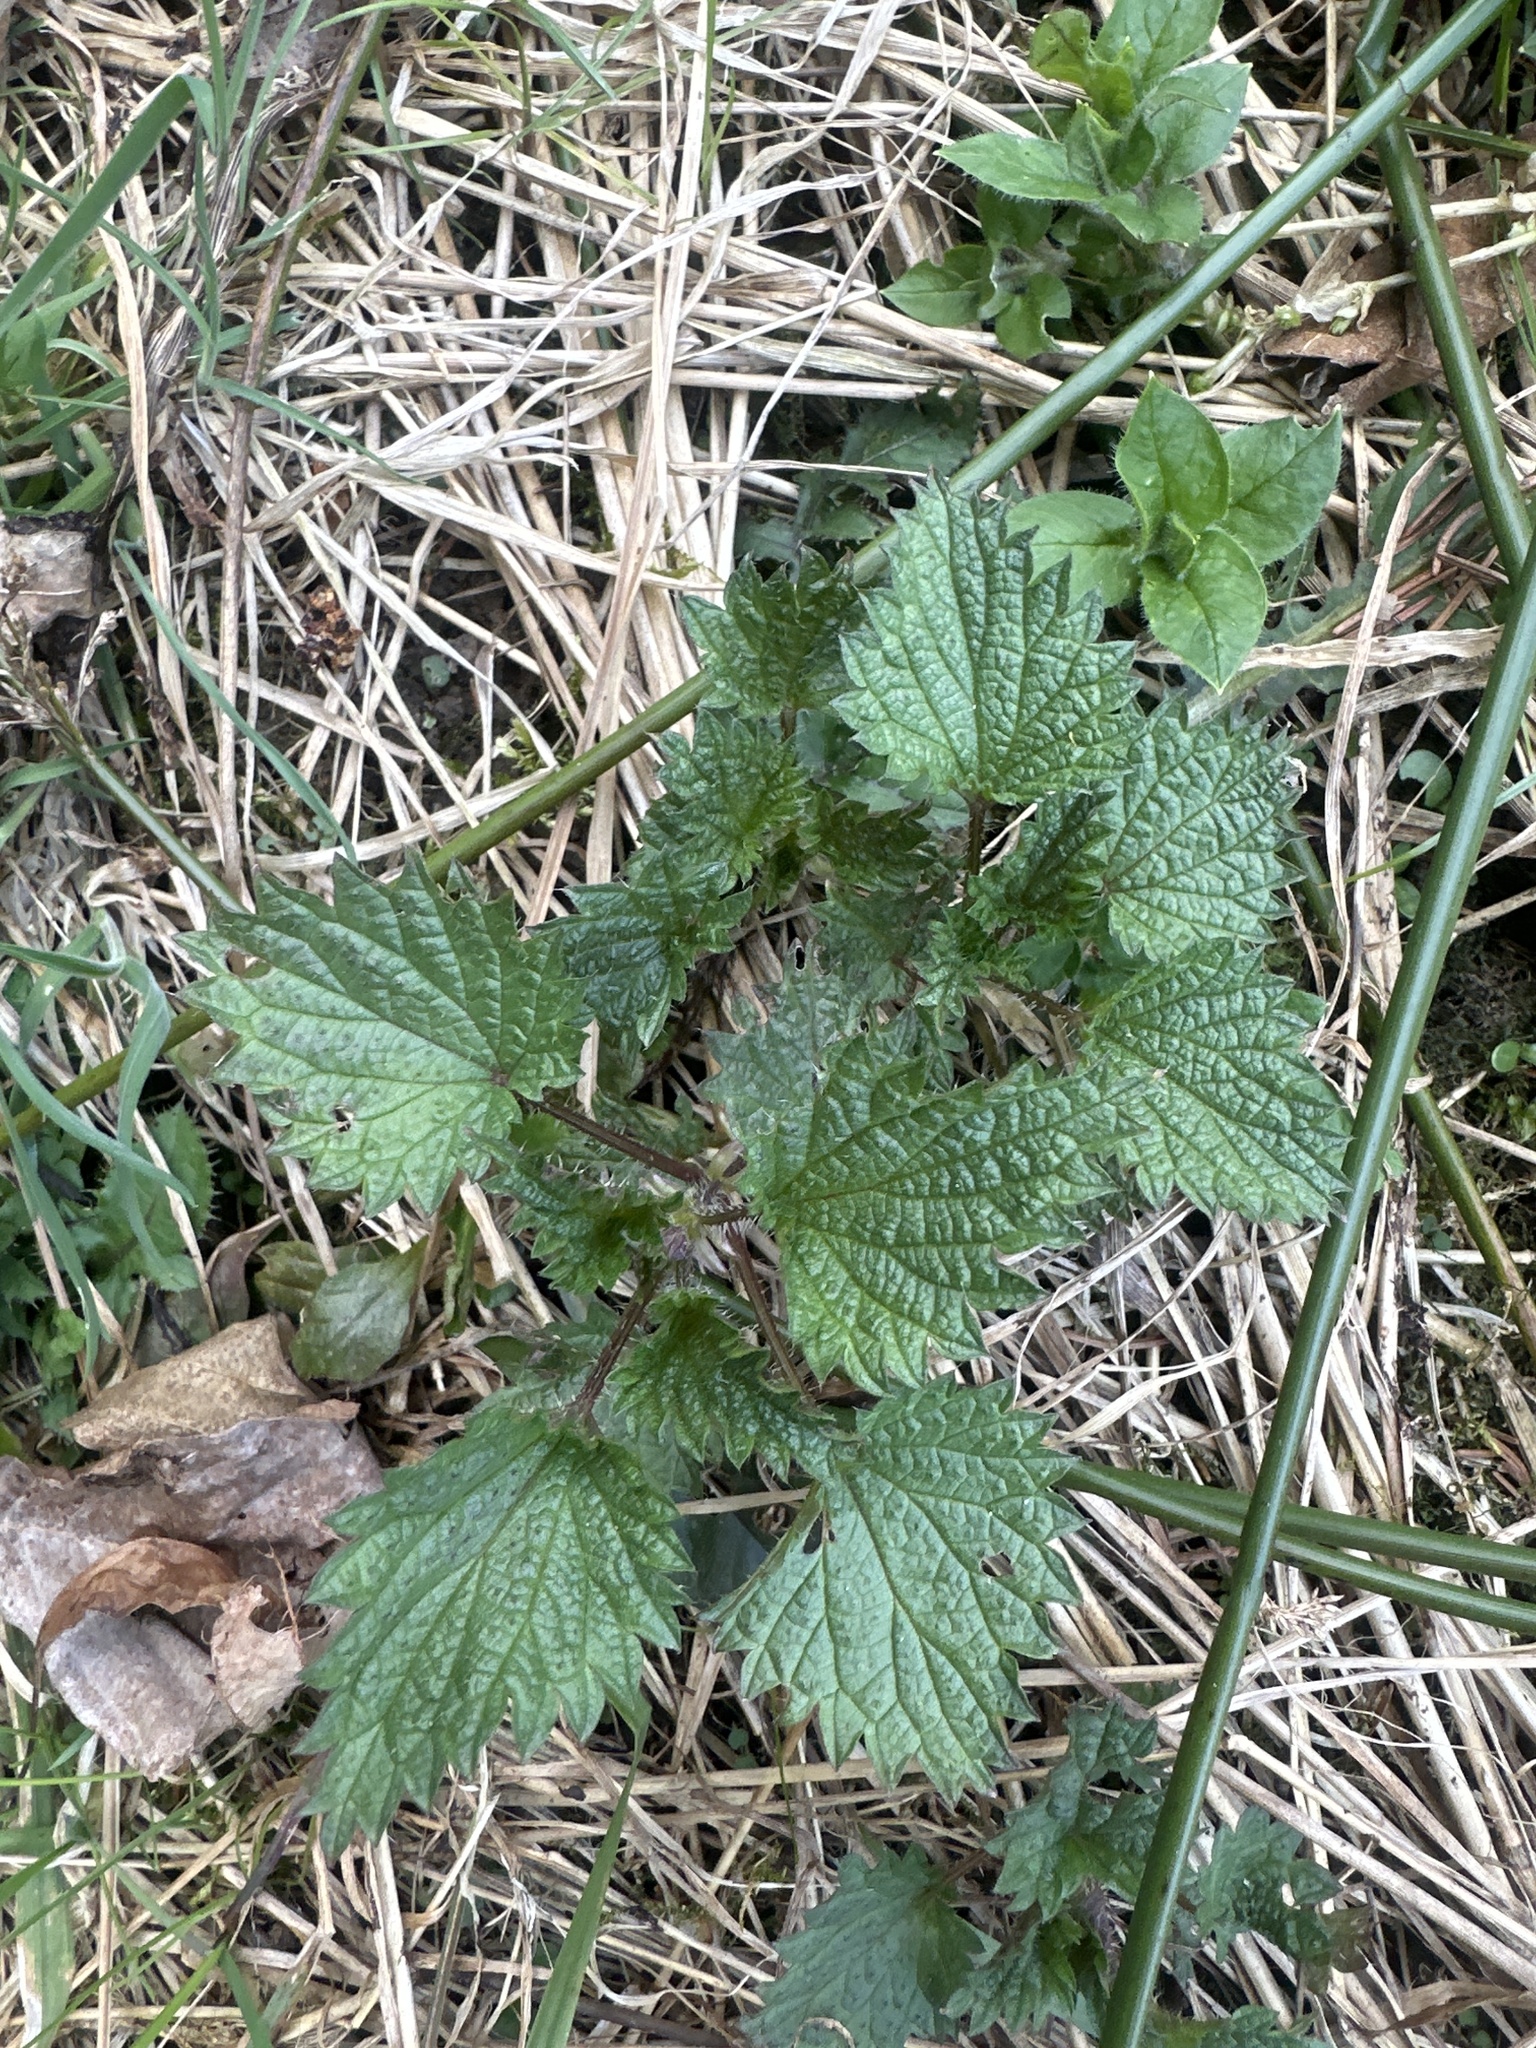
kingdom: Plantae
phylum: Tracheophyta
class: Magnoliopsida
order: Rosales
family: Urticaceae
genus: Urtica
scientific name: Urtica dioica
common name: Common nettle
